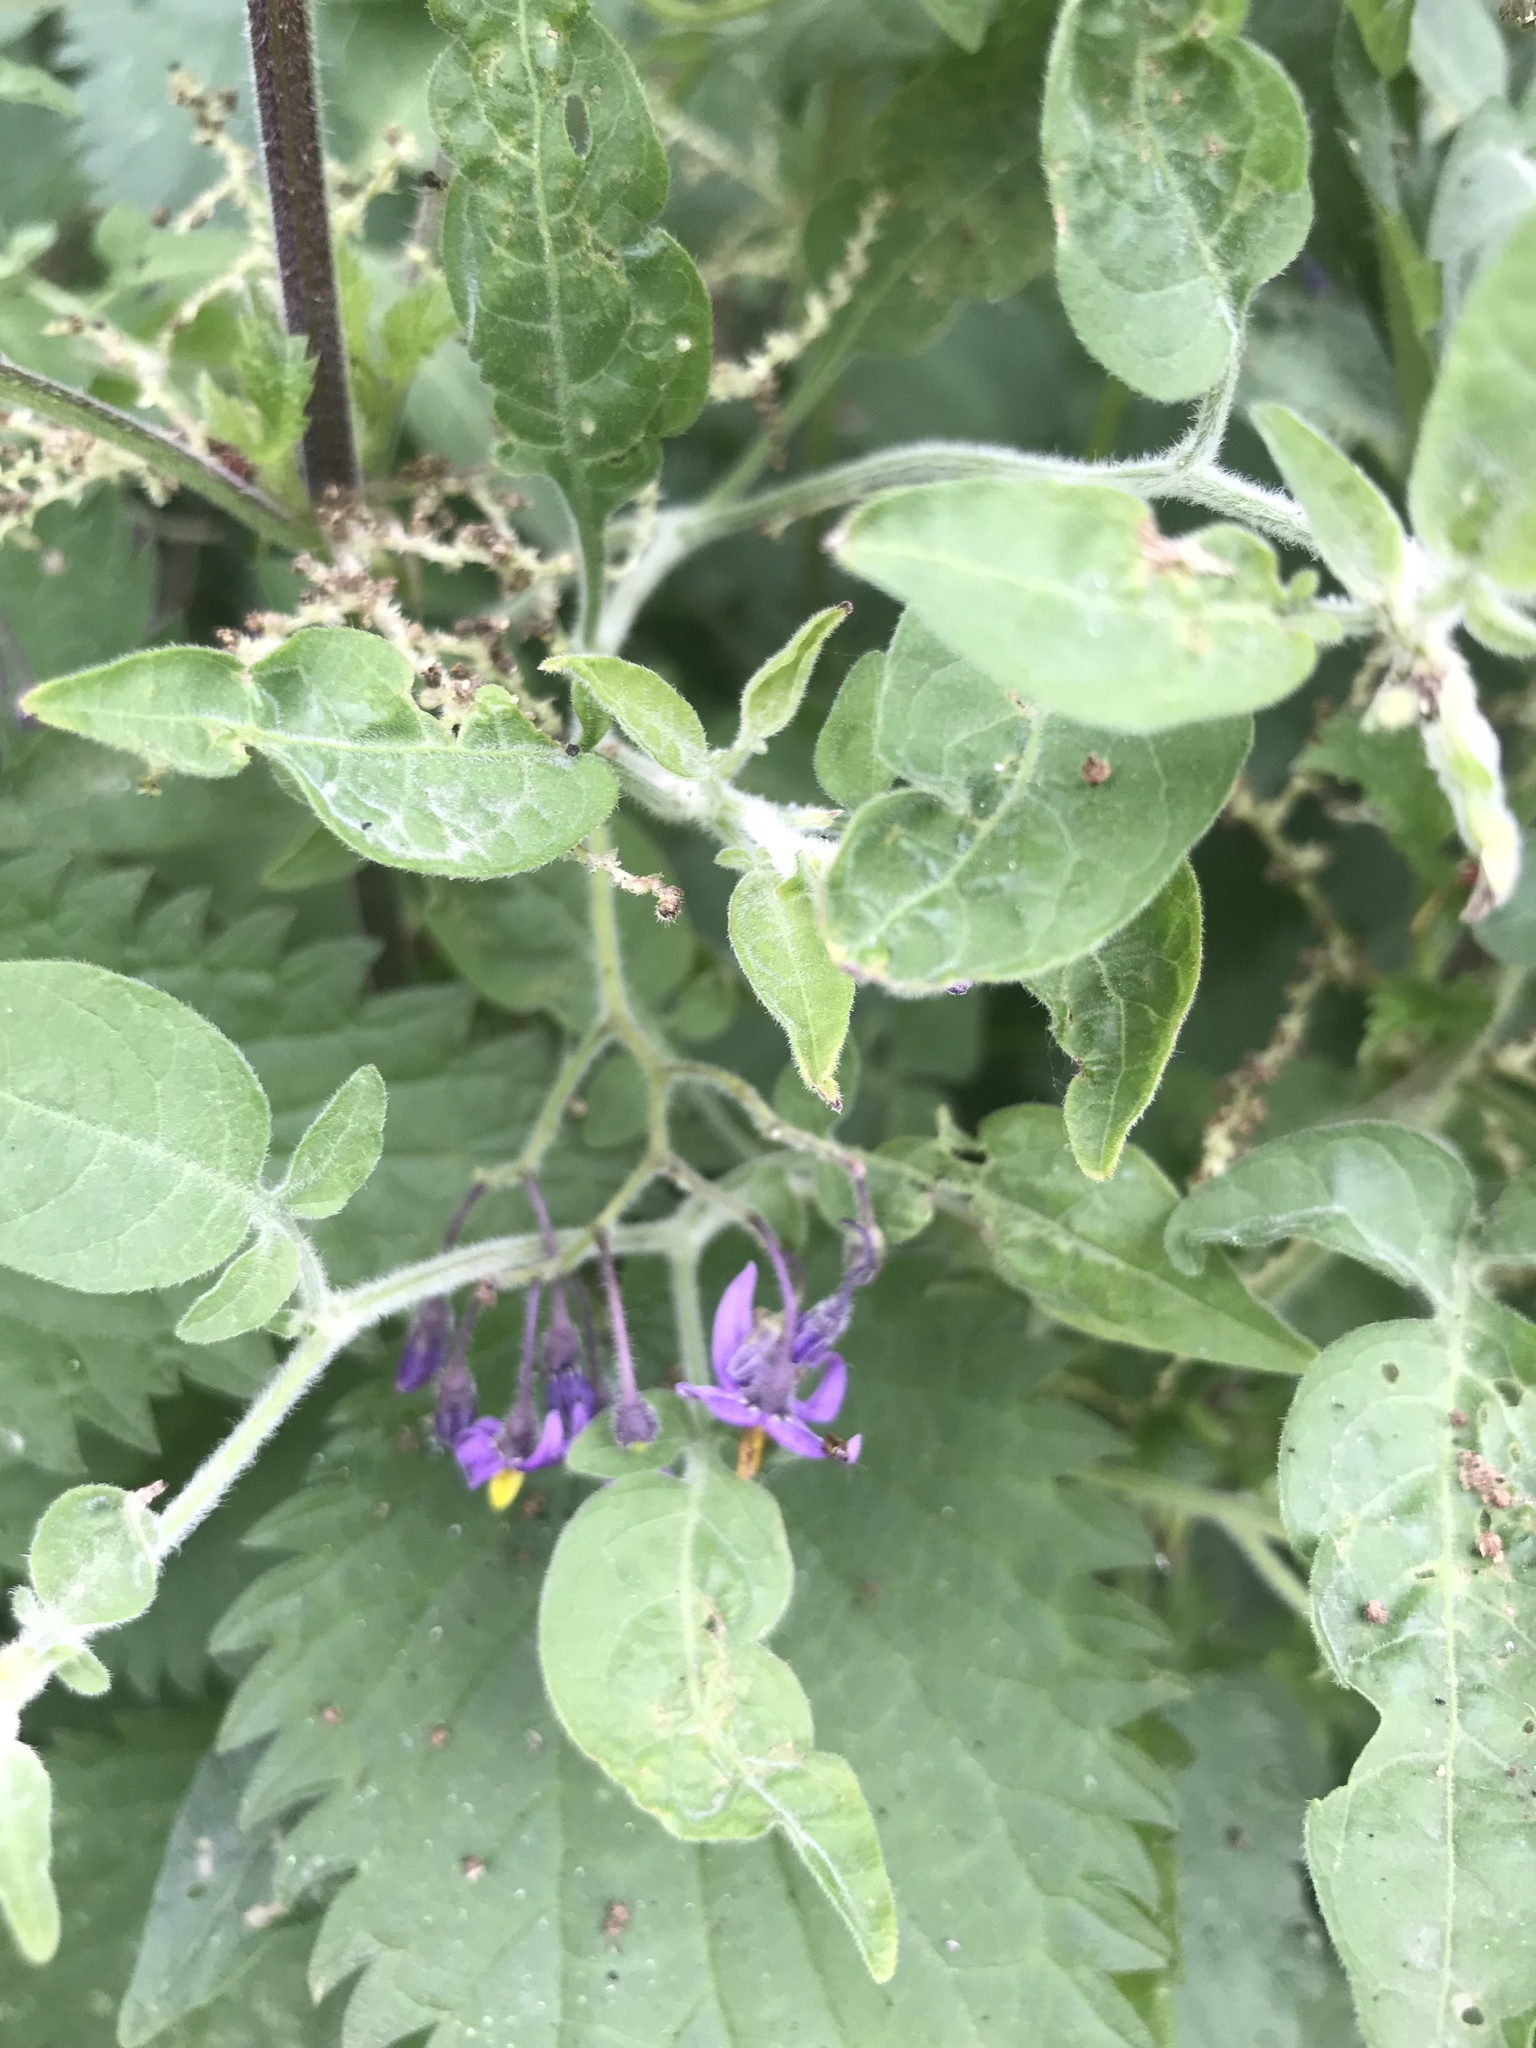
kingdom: Plantae
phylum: Tracheophyta
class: Magnoliopsida
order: Solanales
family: Solanaceae
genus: Solanum
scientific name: Solanum dulcamara
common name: Climbing nightshade
